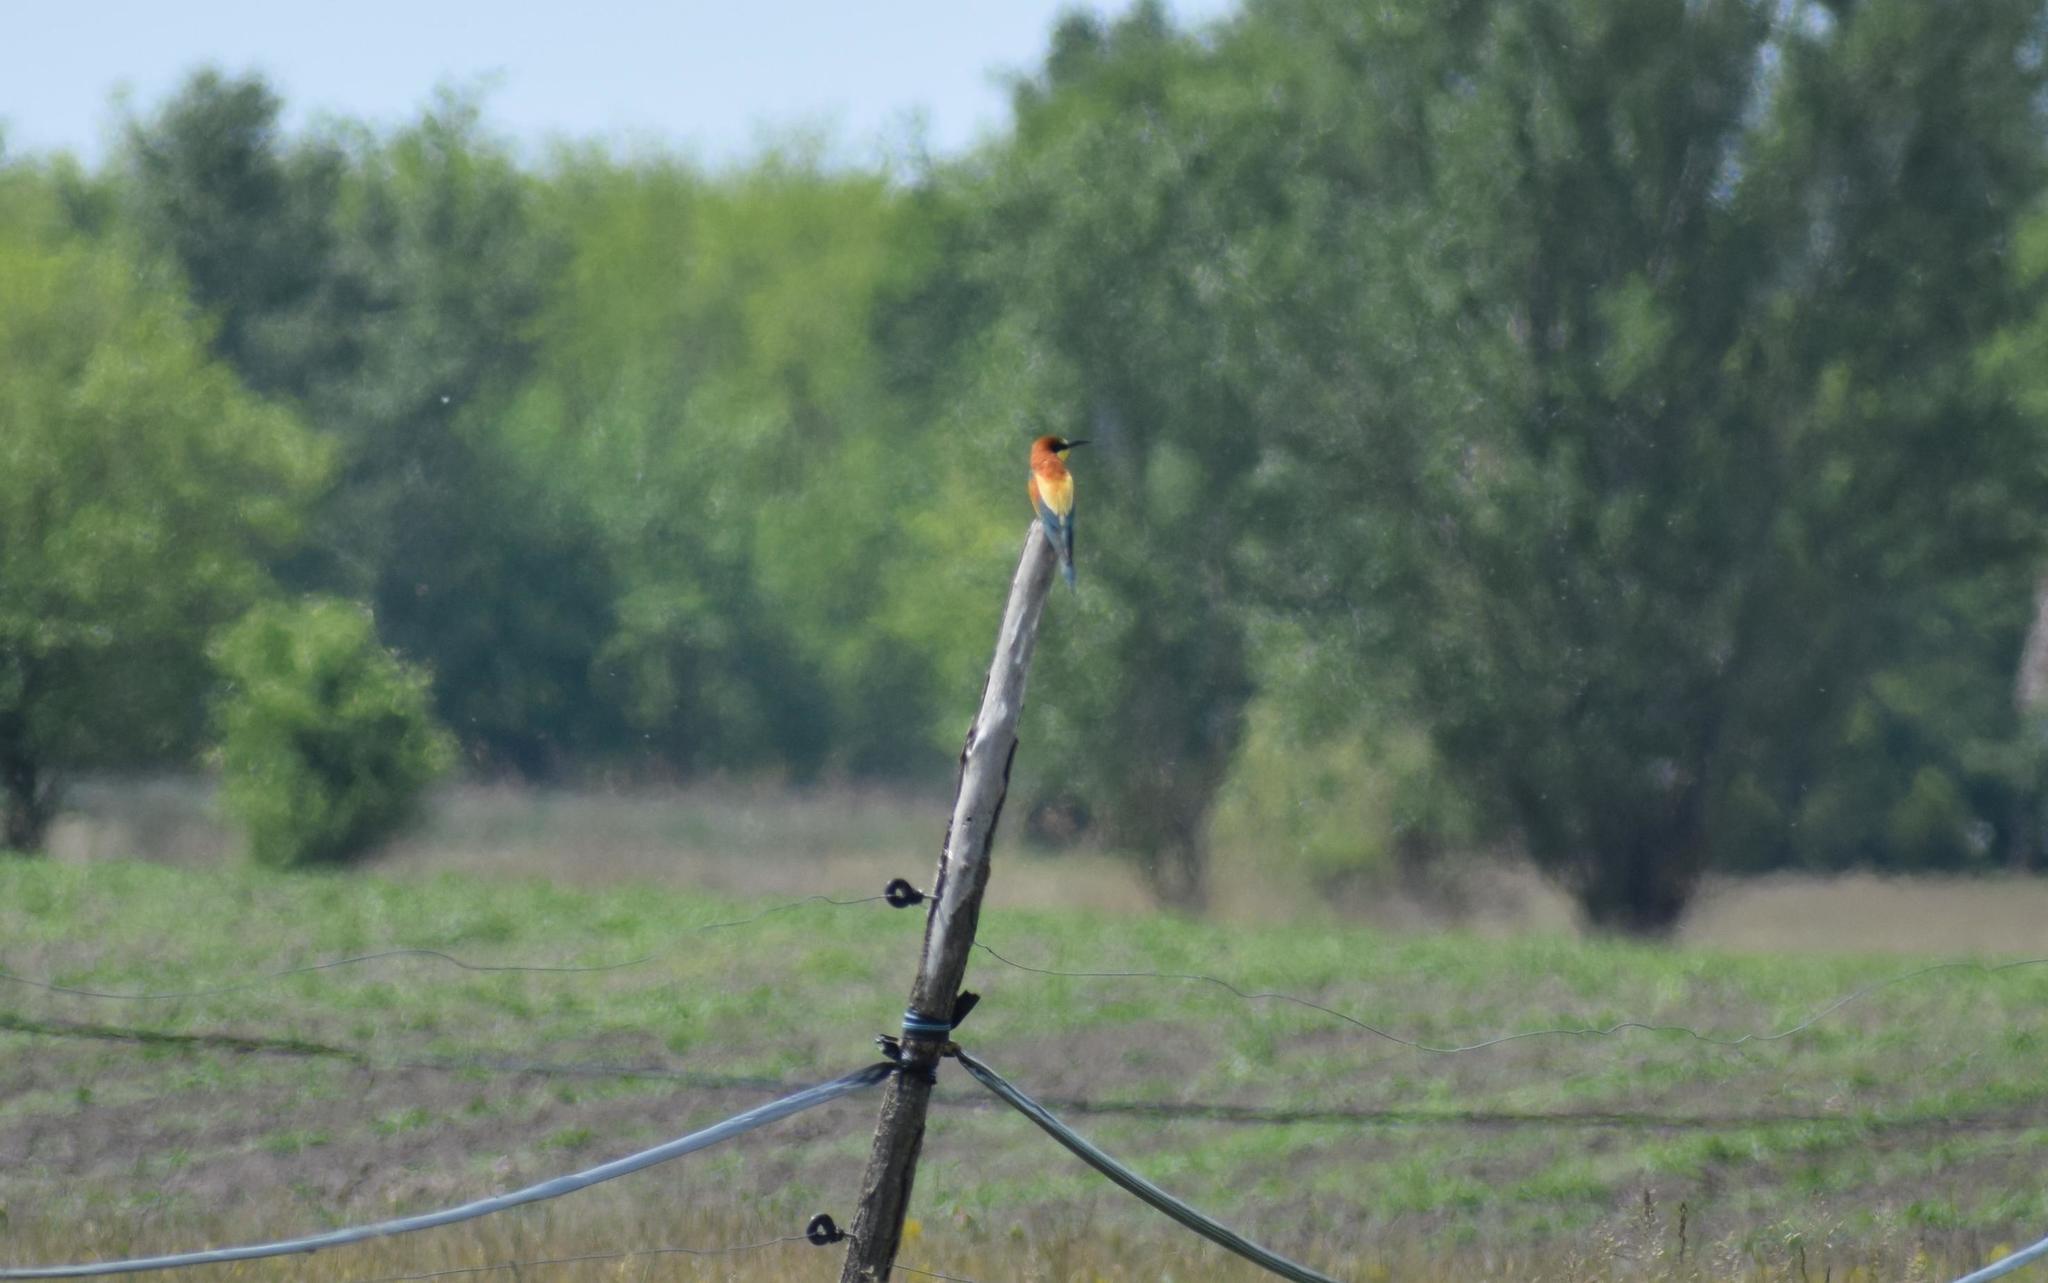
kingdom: Animalia
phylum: Chordata
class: Aves
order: Coraciiformes
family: Meropidae
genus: Merops
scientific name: Merops apiaster
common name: European bee-eater
